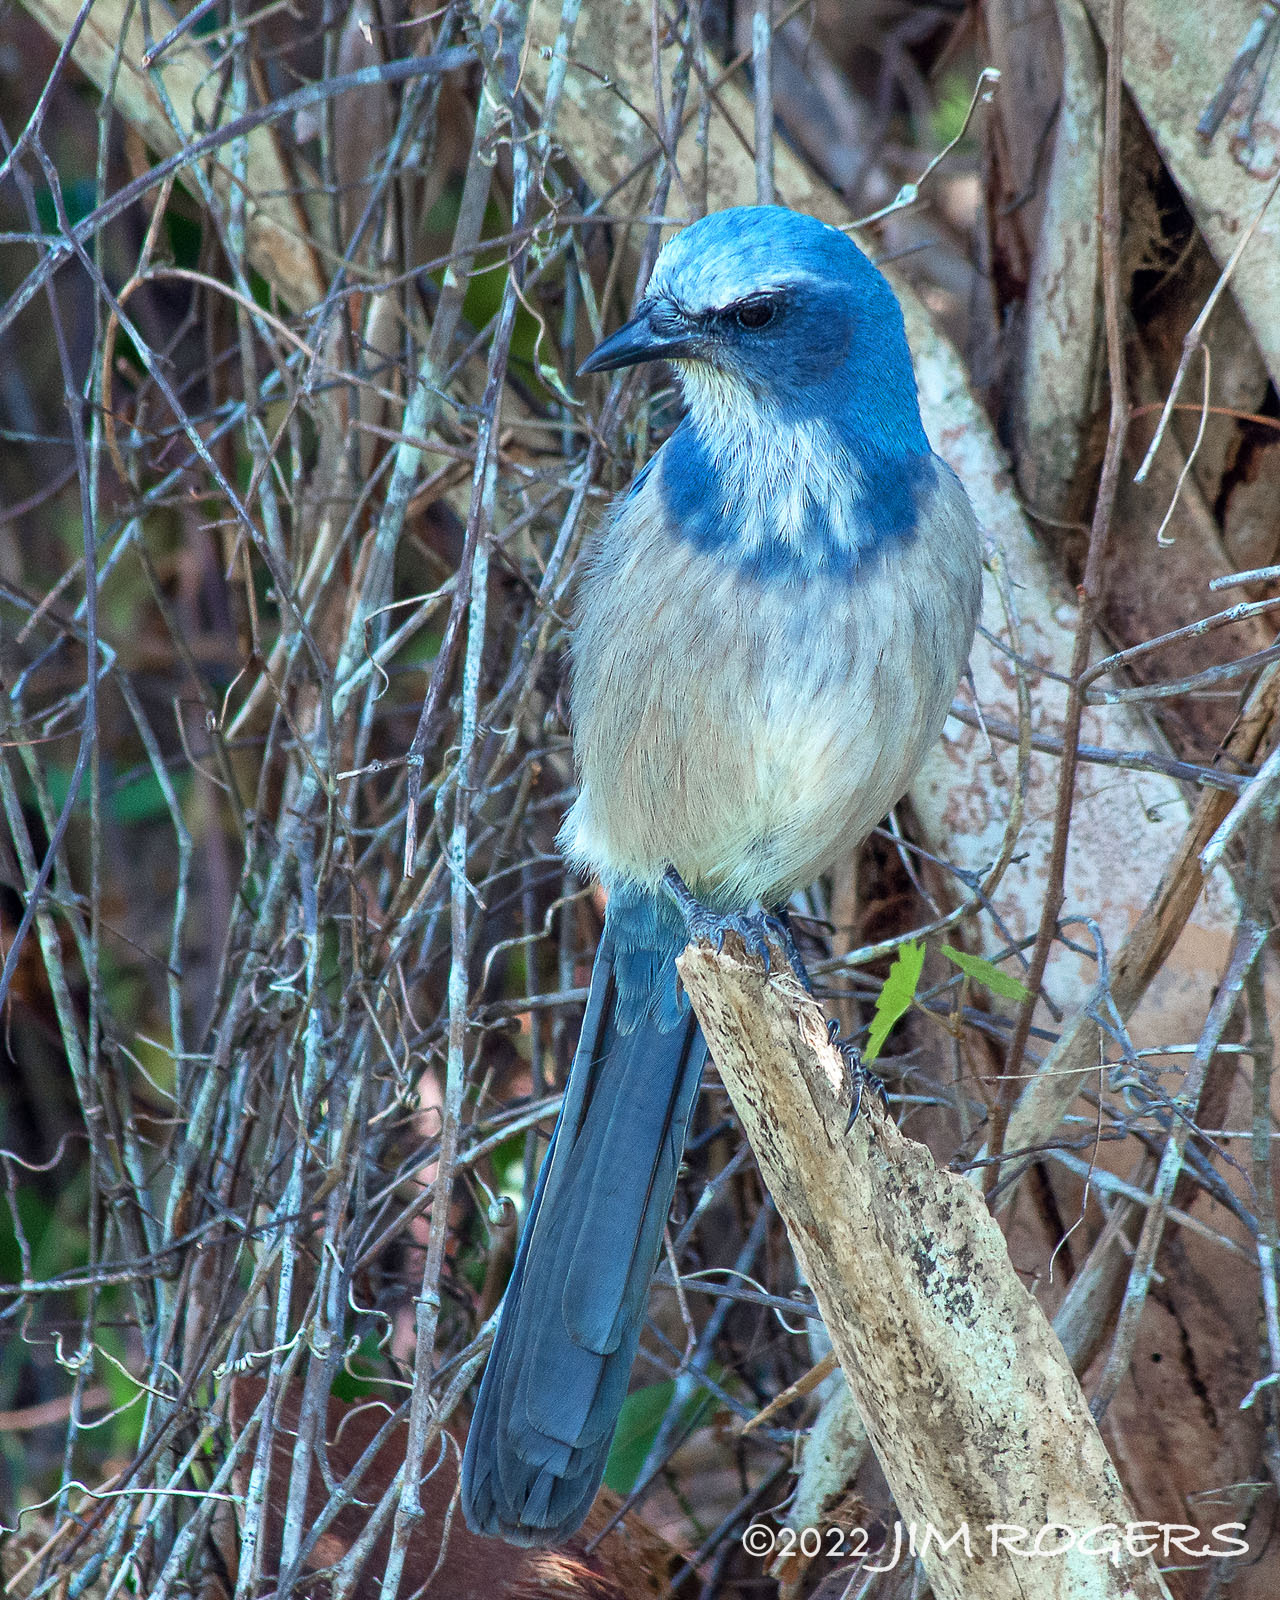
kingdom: Animalia
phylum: Chordata
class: Aves
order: Passeriformes
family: Corvidae
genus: Aphelocoma
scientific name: Aphelocoma coerulescens
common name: Florida scrub jay
